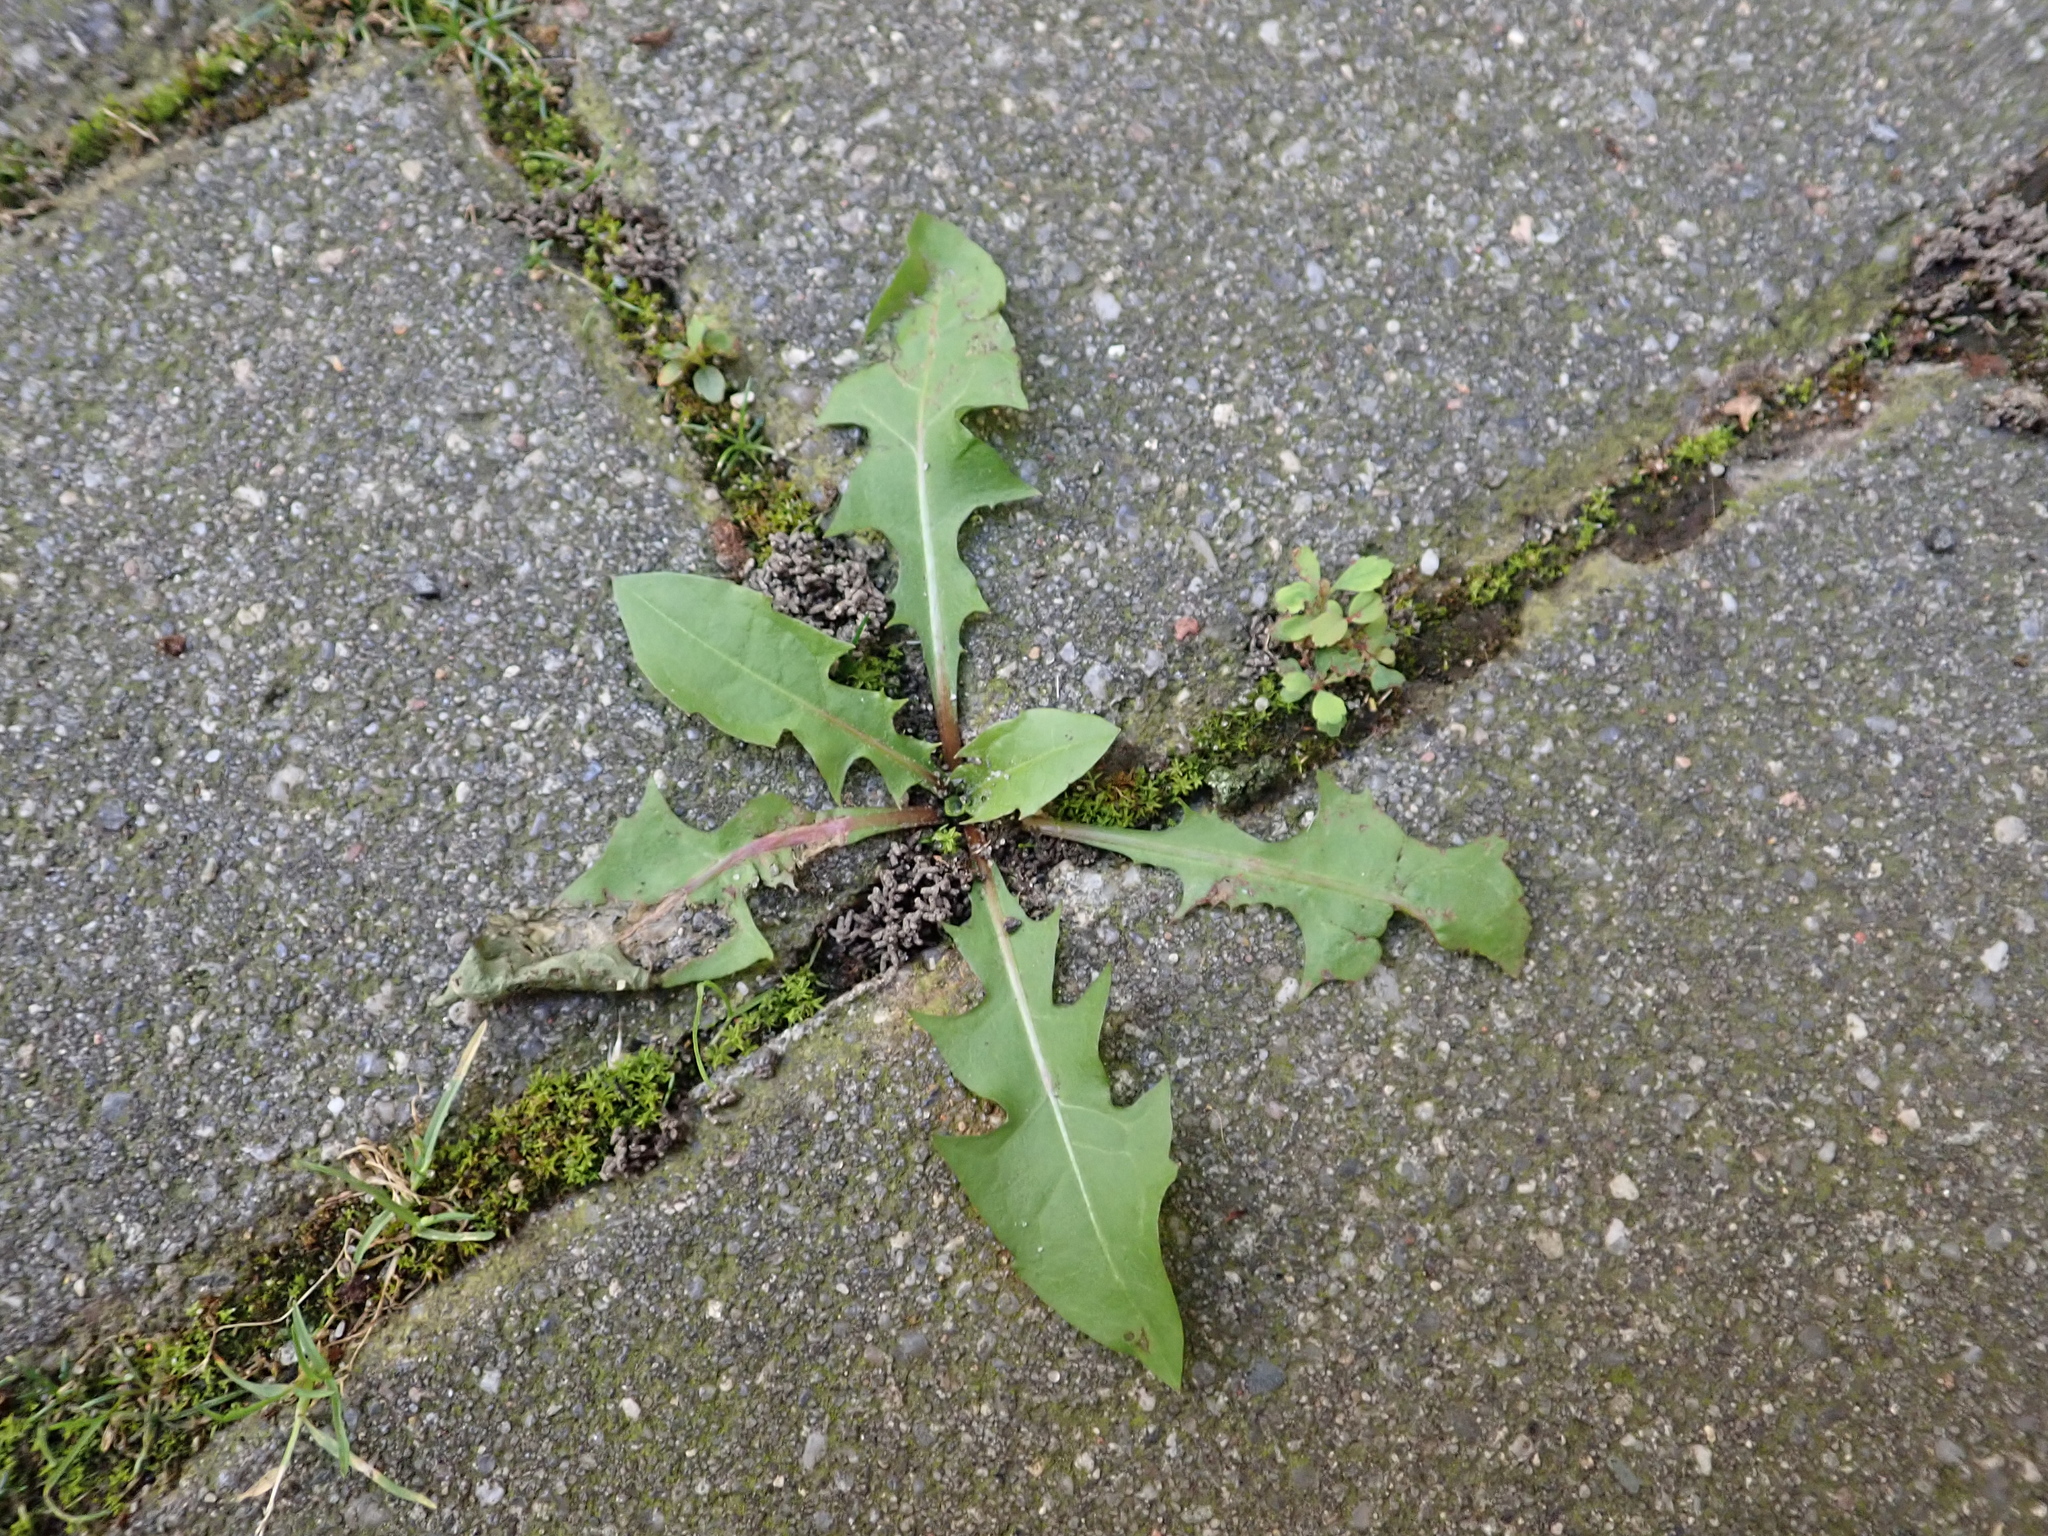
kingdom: Plantae
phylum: Tracheophyta
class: Magnoliopsida
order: Asterales
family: Asteraceae
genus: Taraxacum
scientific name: Taraxacum officinale
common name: Common dandelion
